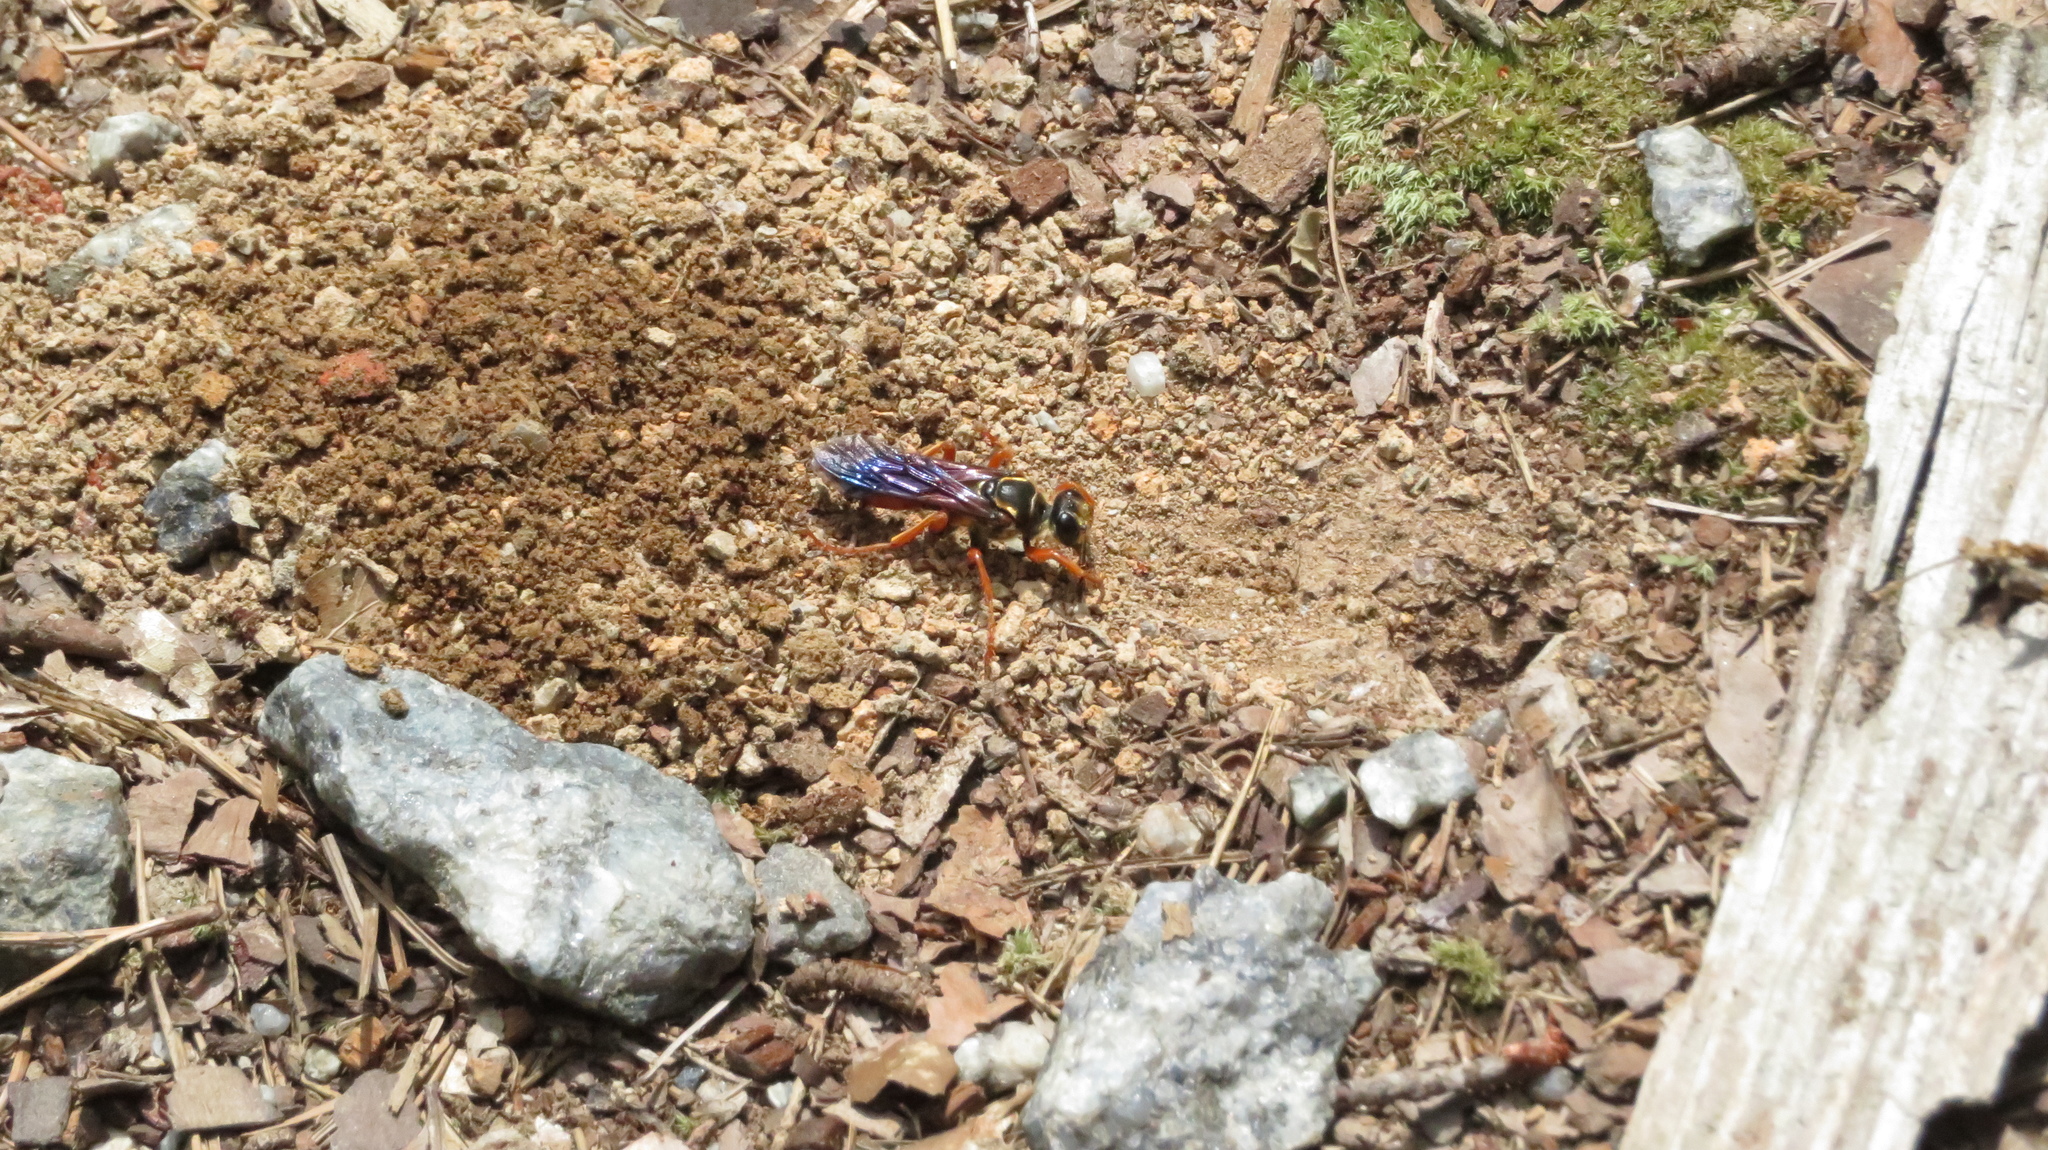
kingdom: Animalia
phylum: Arthropoda
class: Insecta
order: Hymenoptera
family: Sphecidae
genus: Sphex
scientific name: Sphex ichneumoneus
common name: Great golden digger wasp
